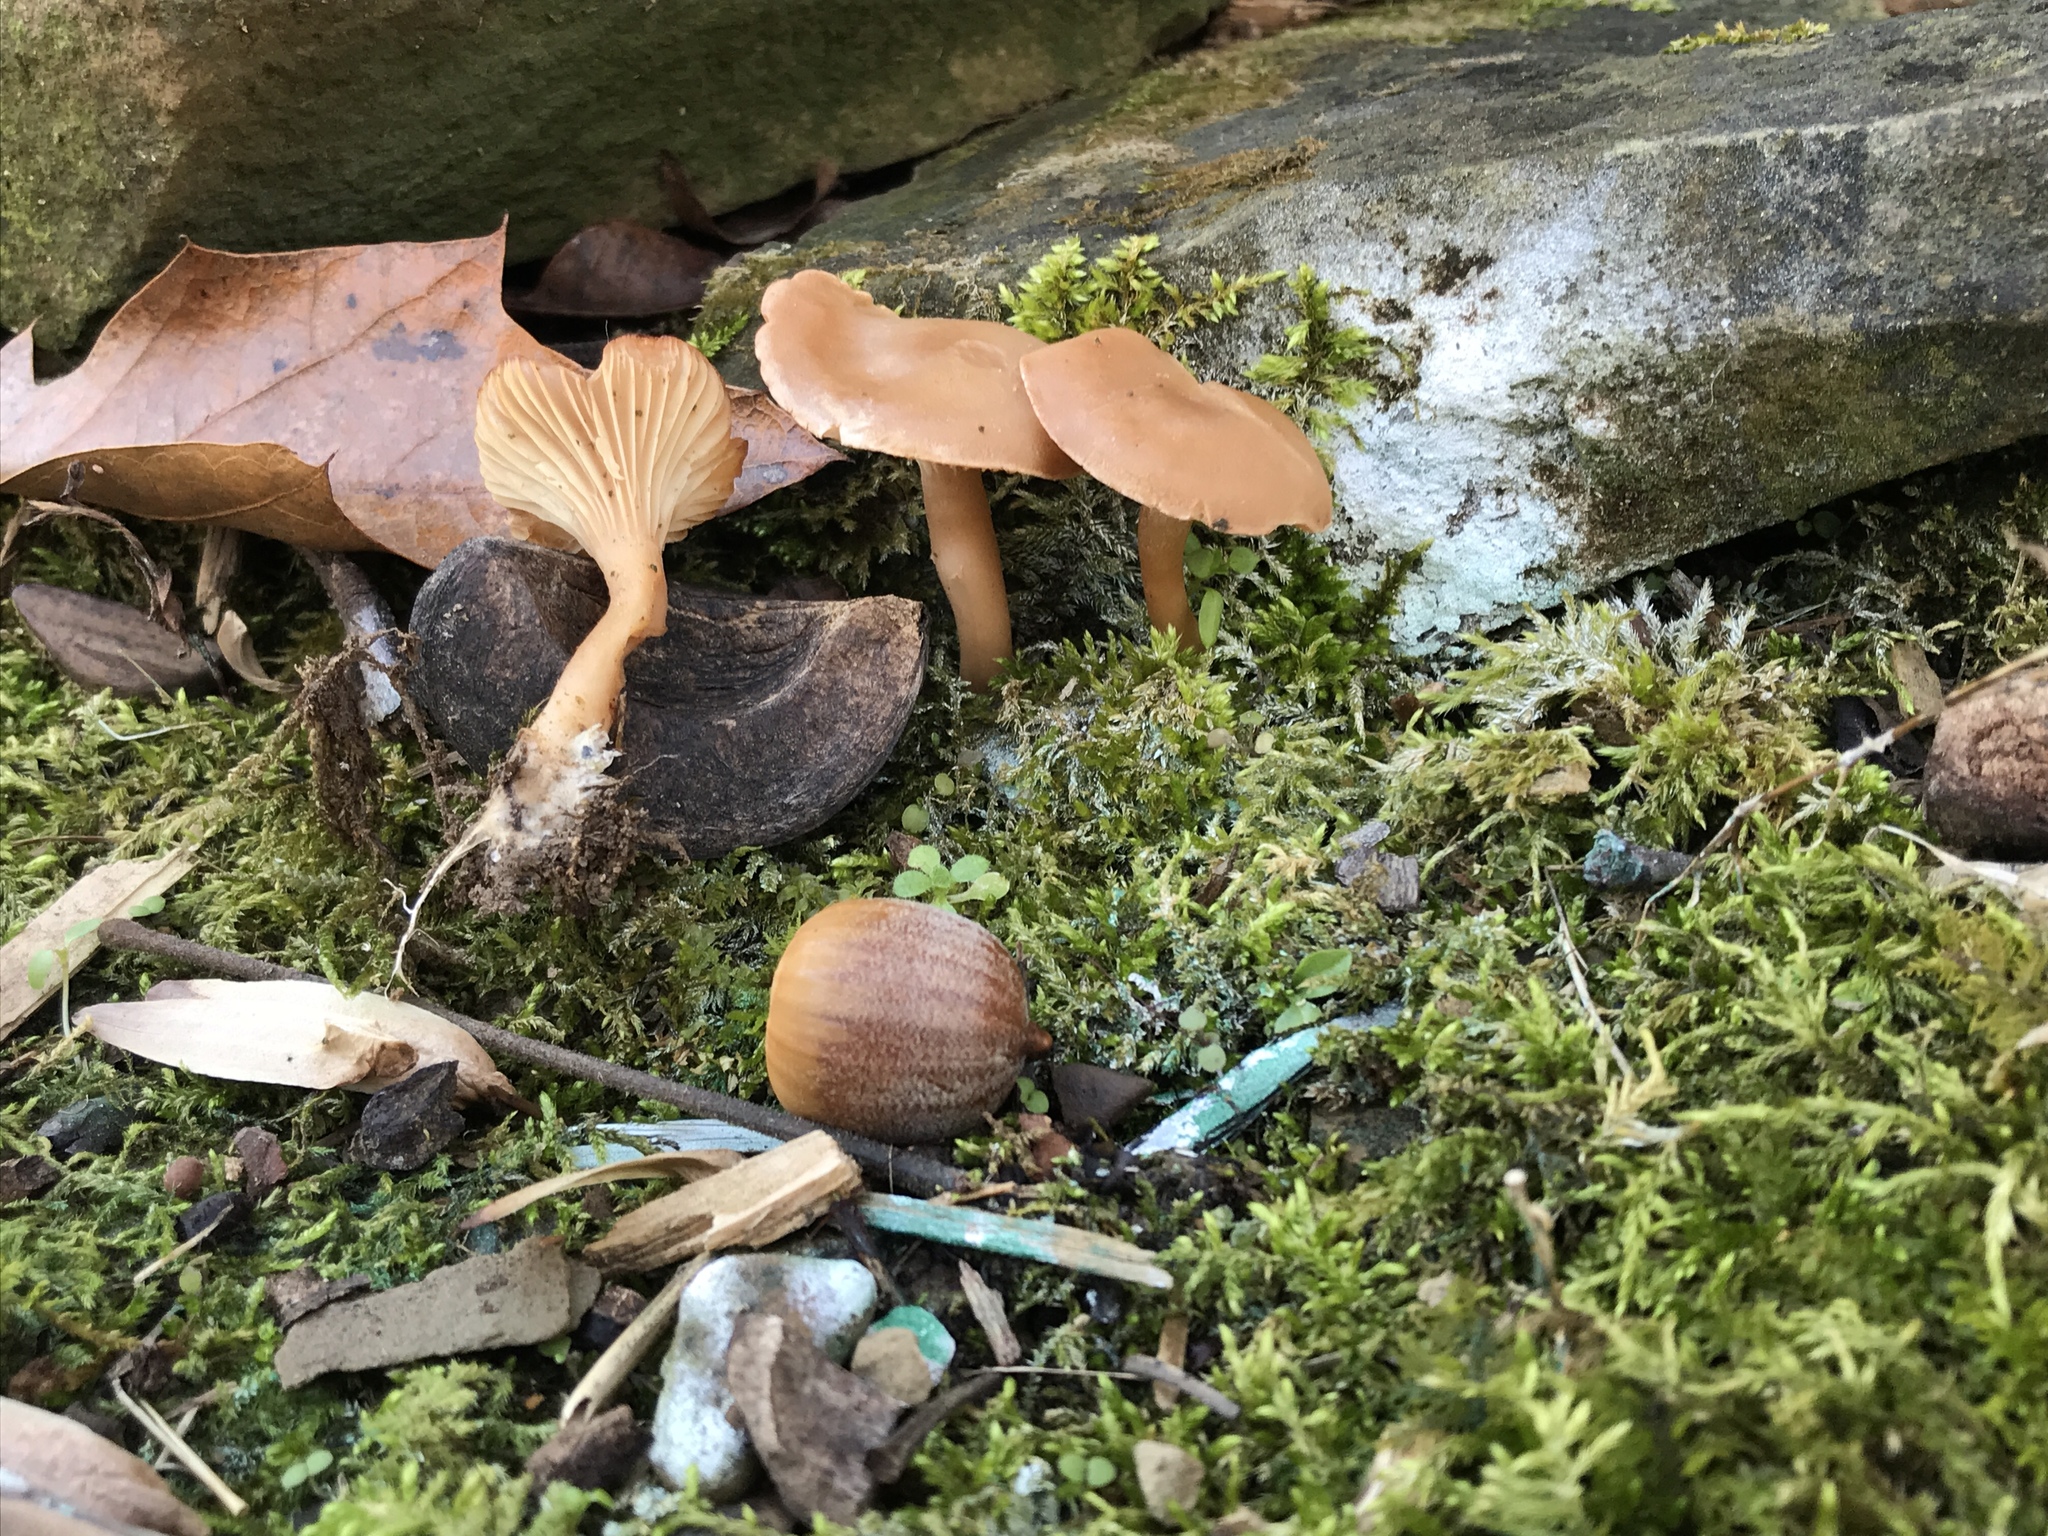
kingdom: Fungi
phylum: Basidiomycota
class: Agaricomycetes
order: Agaricales
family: Tricholomataceae
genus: Pseudoomphalina
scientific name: Pseudoomphalina compressipes
